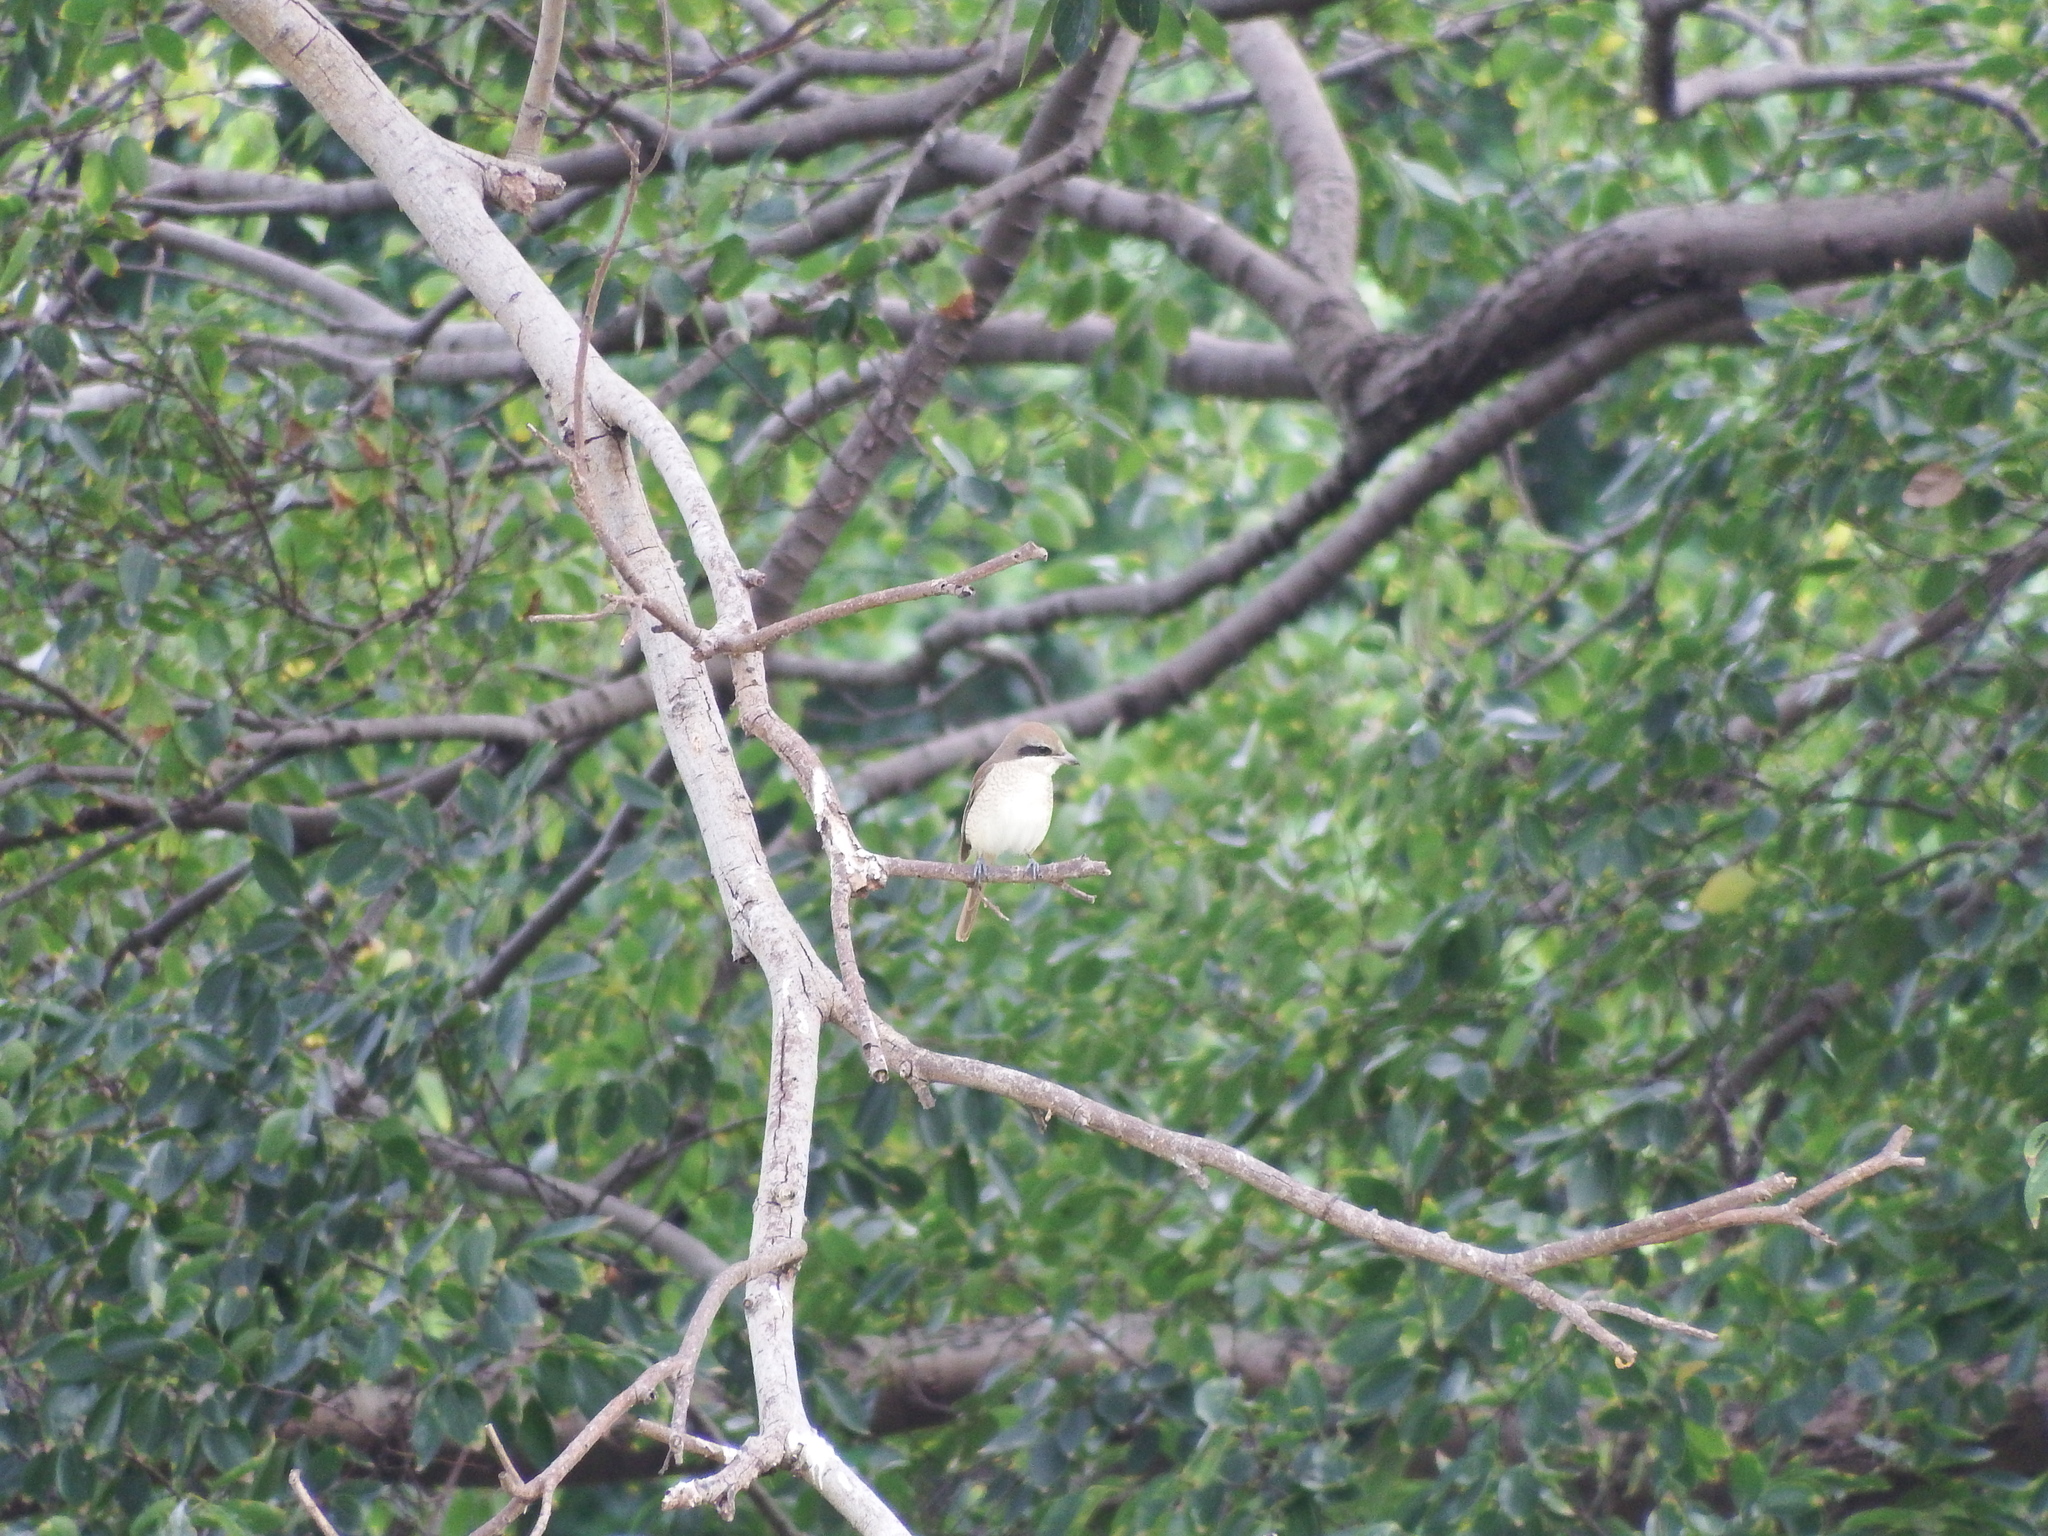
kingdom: Animalia
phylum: Chordata
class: Aves
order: Passeriformes
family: Laniidae
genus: Lanius
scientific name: Lanius cristatus
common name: Brown shrike
